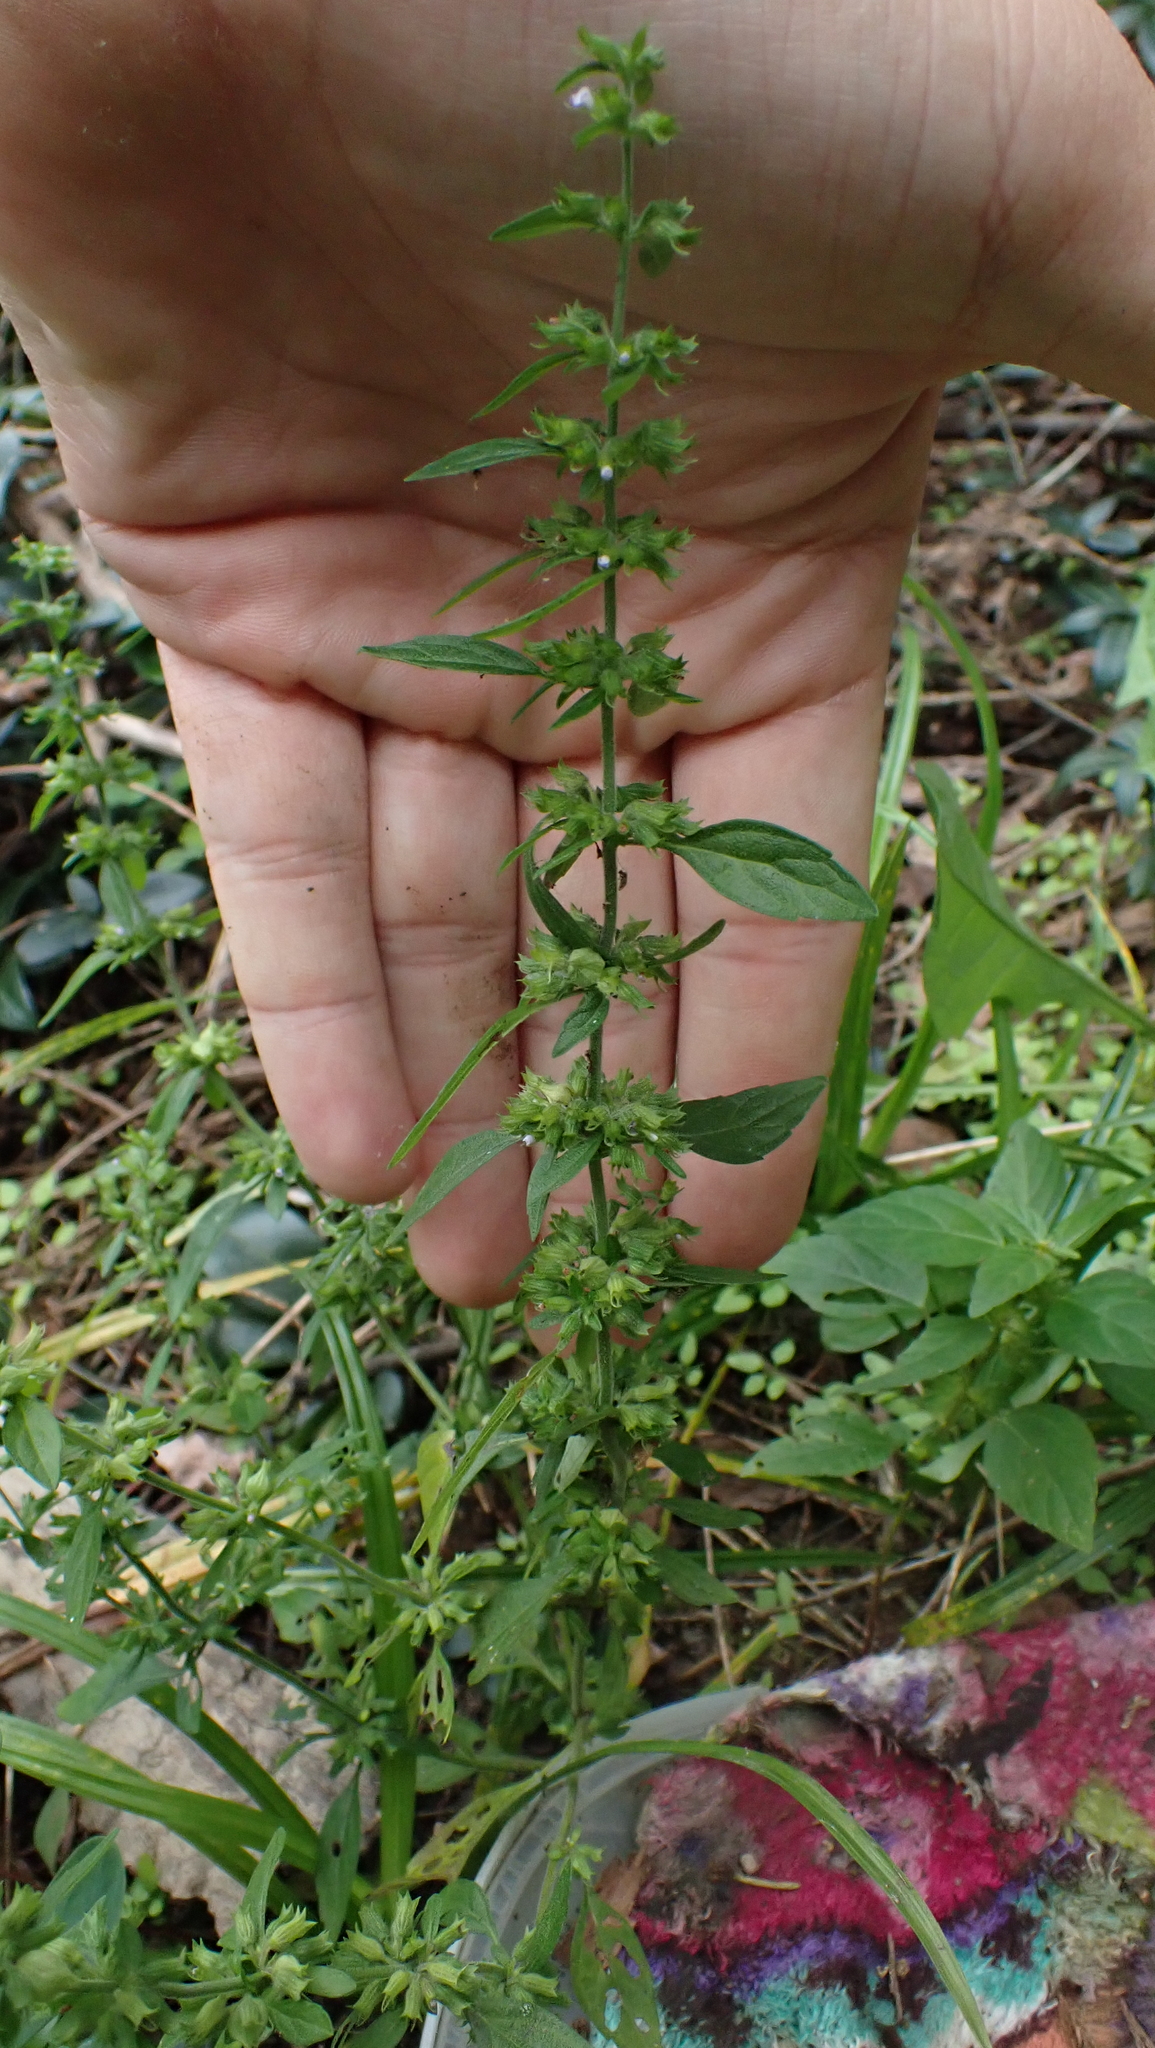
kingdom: Plantae
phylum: Tracheophyta
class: Magnoliopsida
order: Lamiales
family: Lamiaceae
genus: Hedeoma
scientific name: Hedeoma pulegioides
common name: American false pennyroyal
